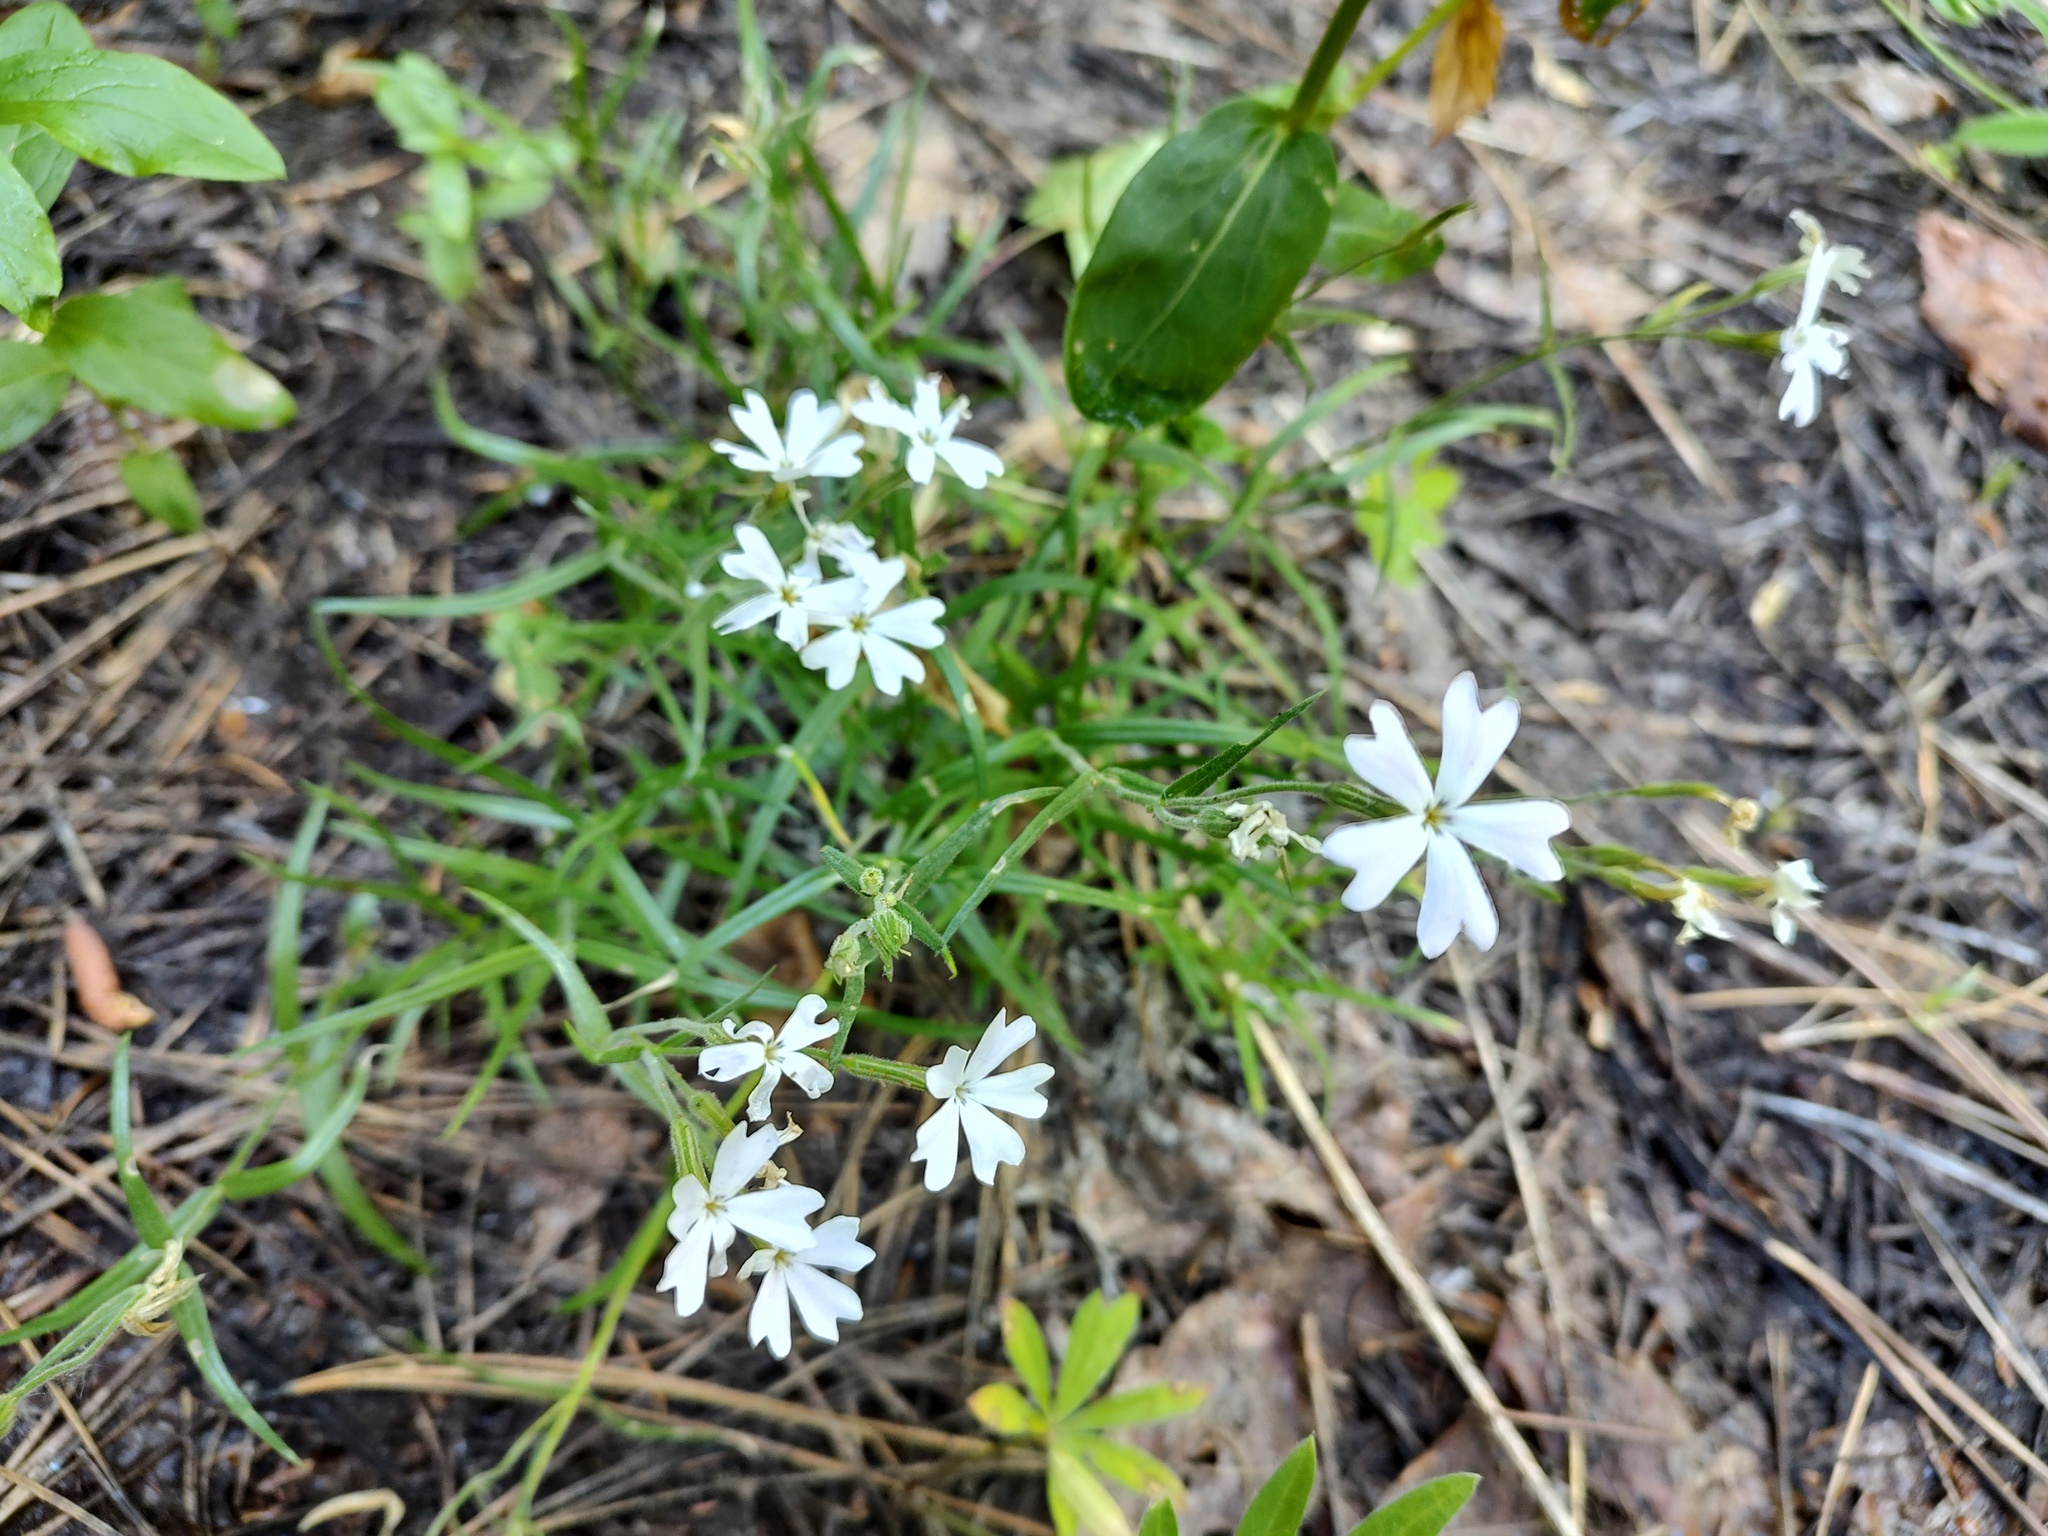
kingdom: Plantae
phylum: Tracheophyta
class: Magnoliopsida
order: Ericales
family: Polemoniaceae
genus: Phlox
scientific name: Phlox speciosa
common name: Bush phlox
